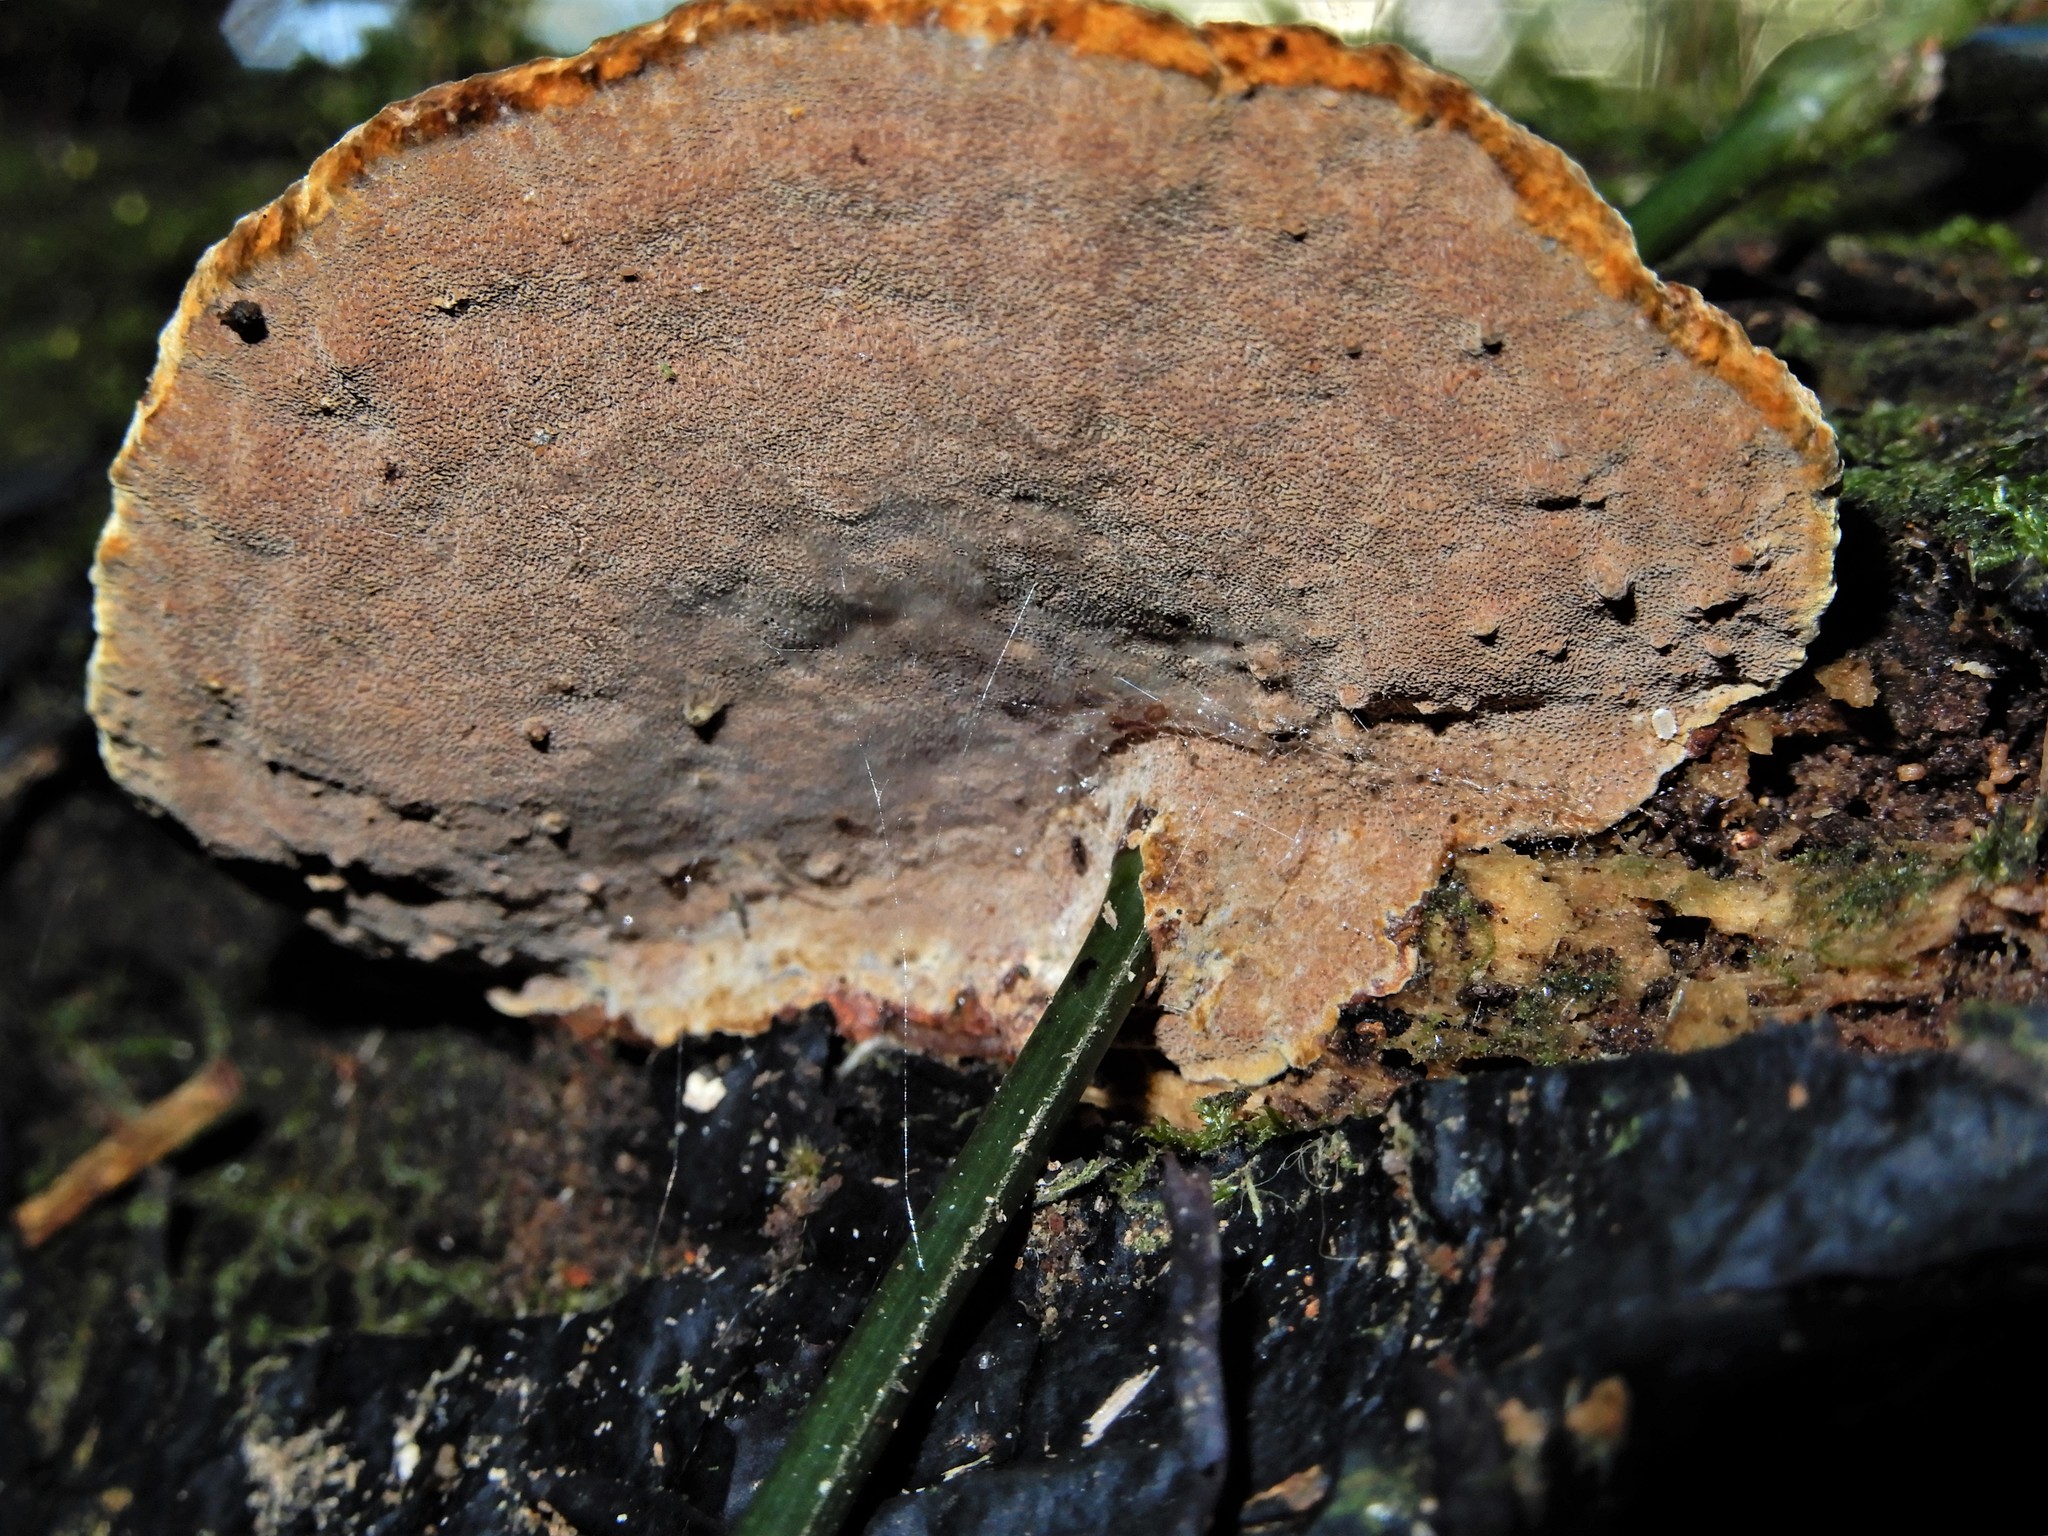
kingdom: Fungi
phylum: Basidiomycota
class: Agaricomycetes
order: Hymenochaetales
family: Hymenochaetaceae
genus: Phellinus
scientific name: Phellinus gilvus
